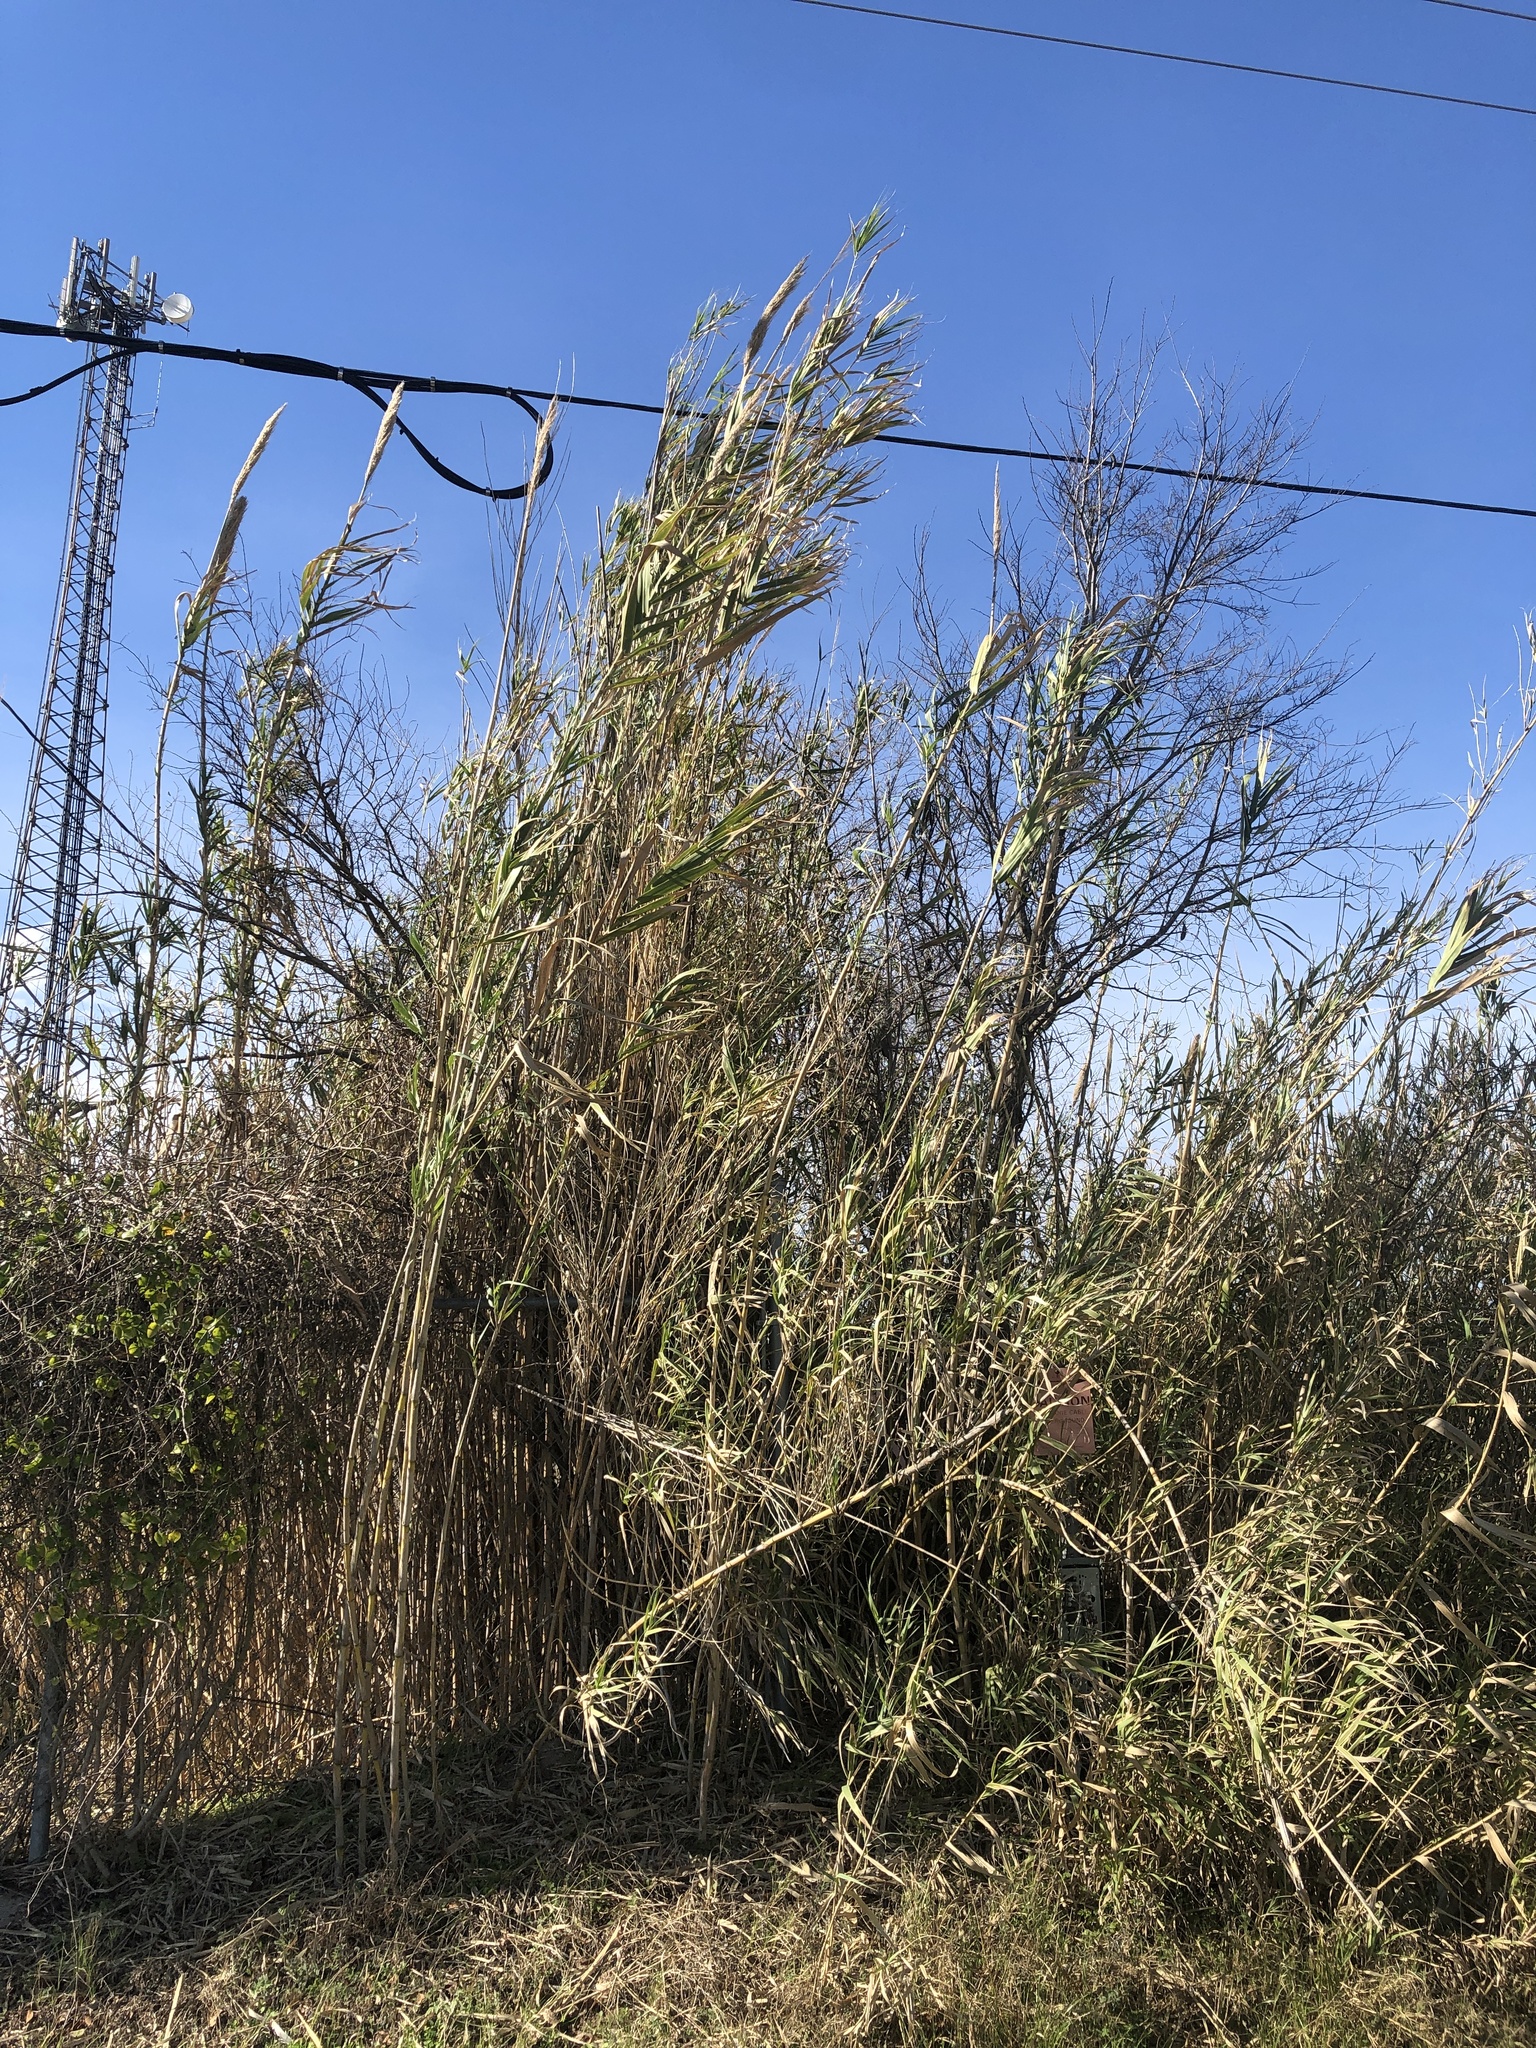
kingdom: Plantae
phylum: Tracheophyta
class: Liliopsida
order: Poales
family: Poaceae
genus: Arundo
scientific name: Arundo donax
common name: Giant reed
